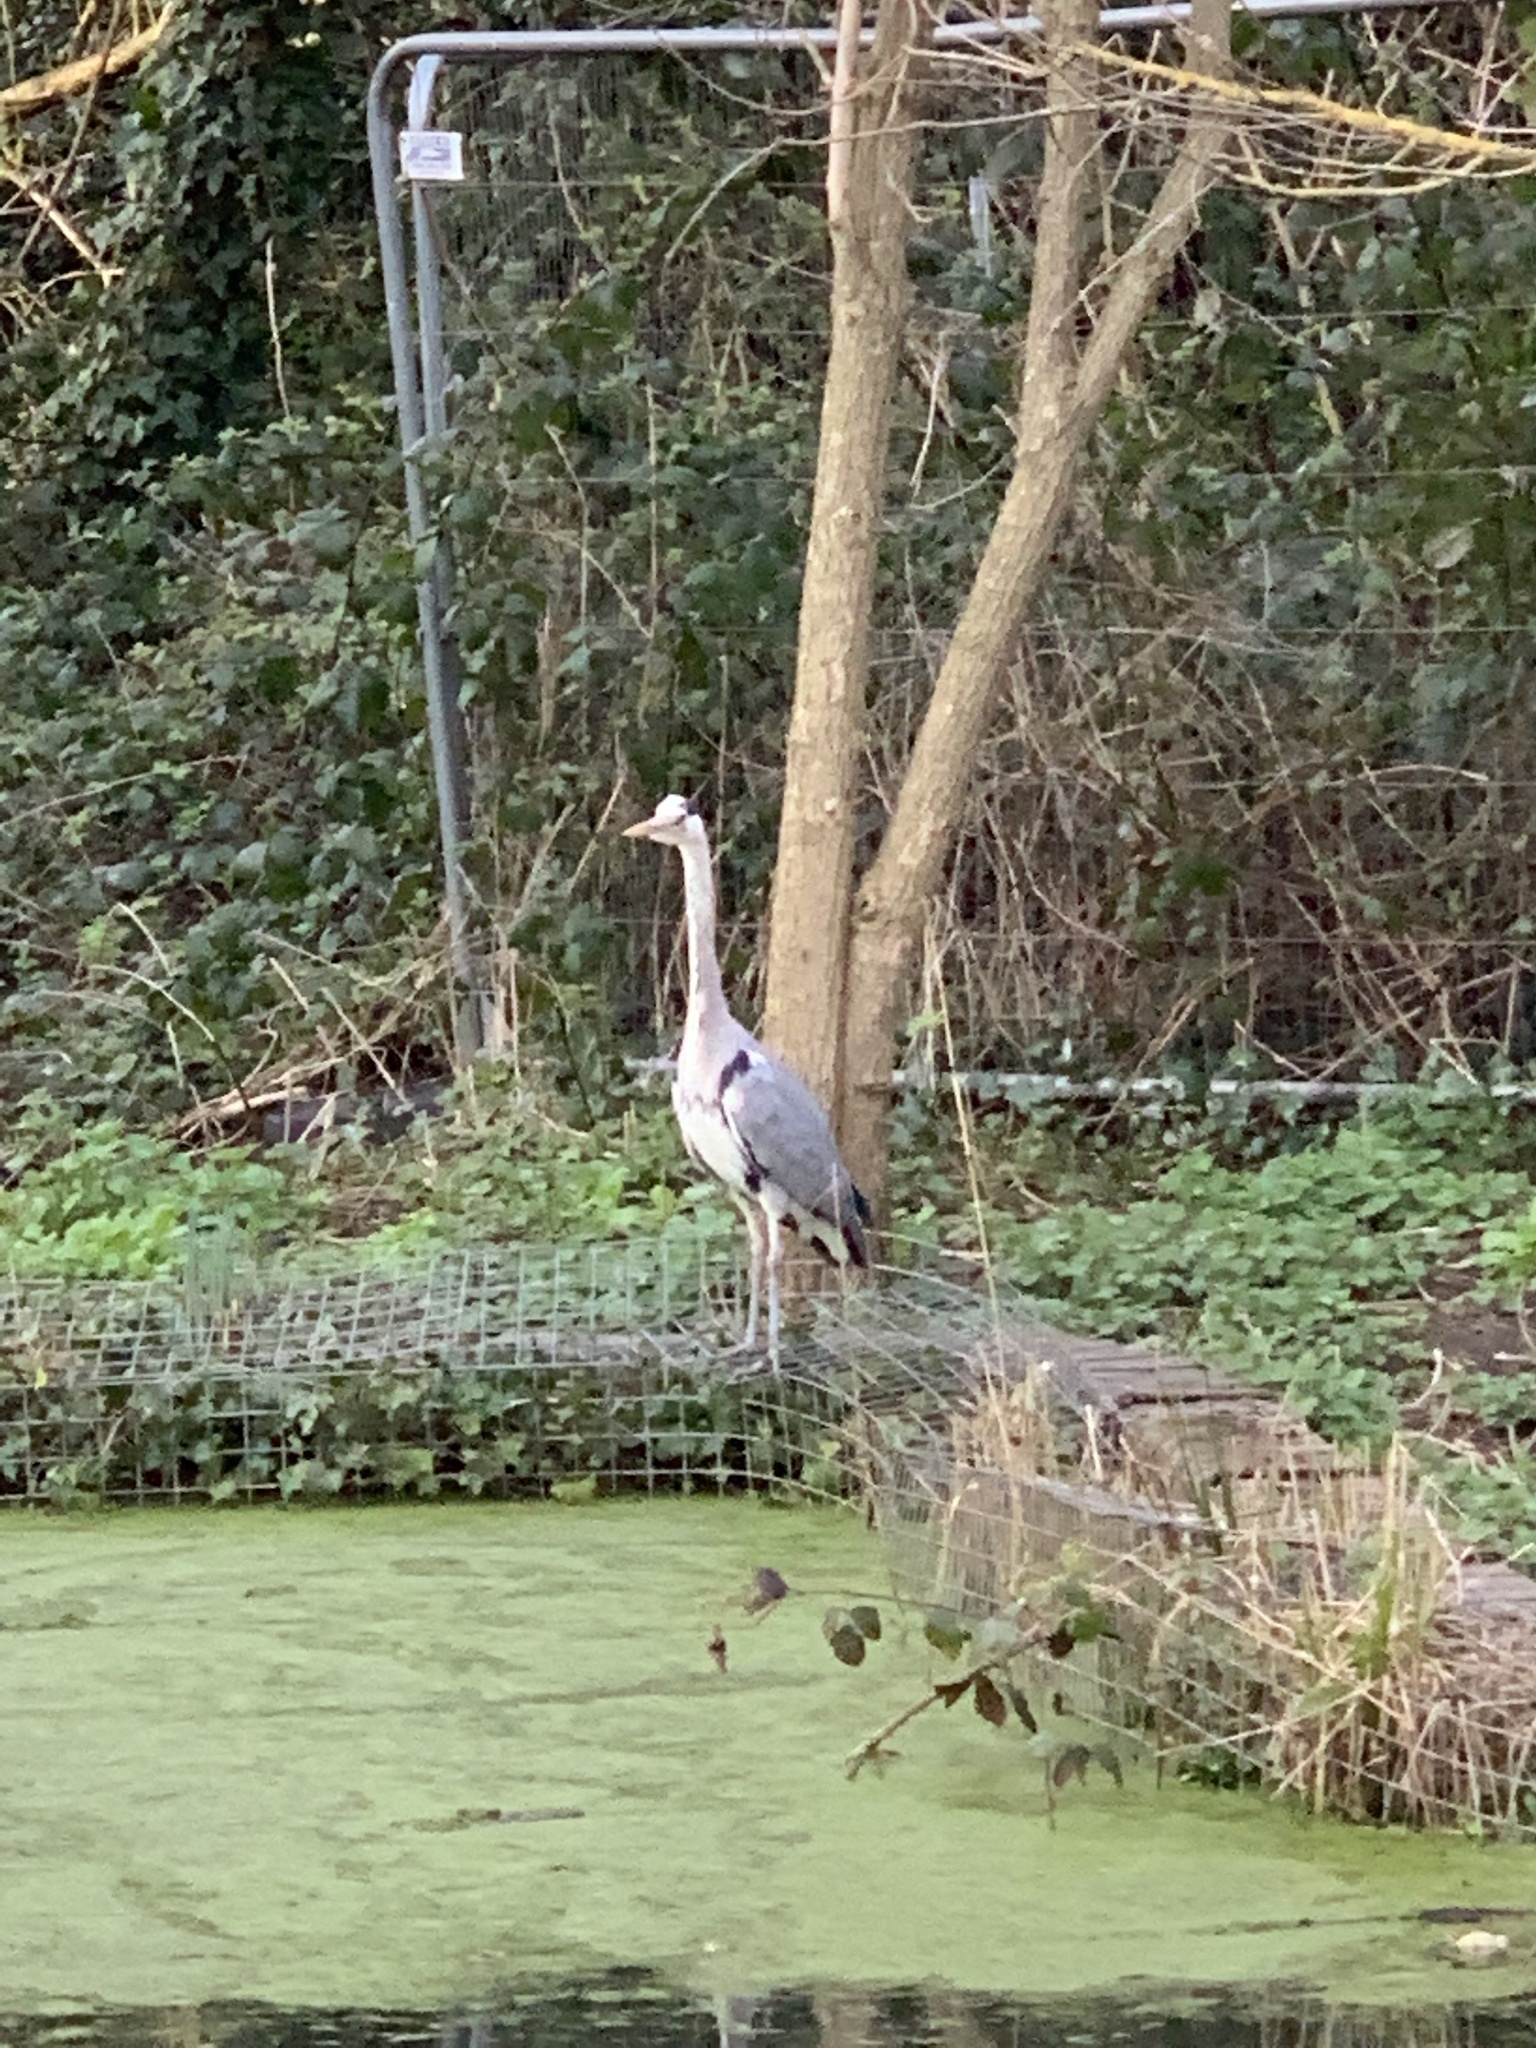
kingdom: Animalia
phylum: Chordata
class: Aves
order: Pelecaniformes
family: Ardeidae
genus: Ardea
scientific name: Ardea cinerea
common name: Grey heron
